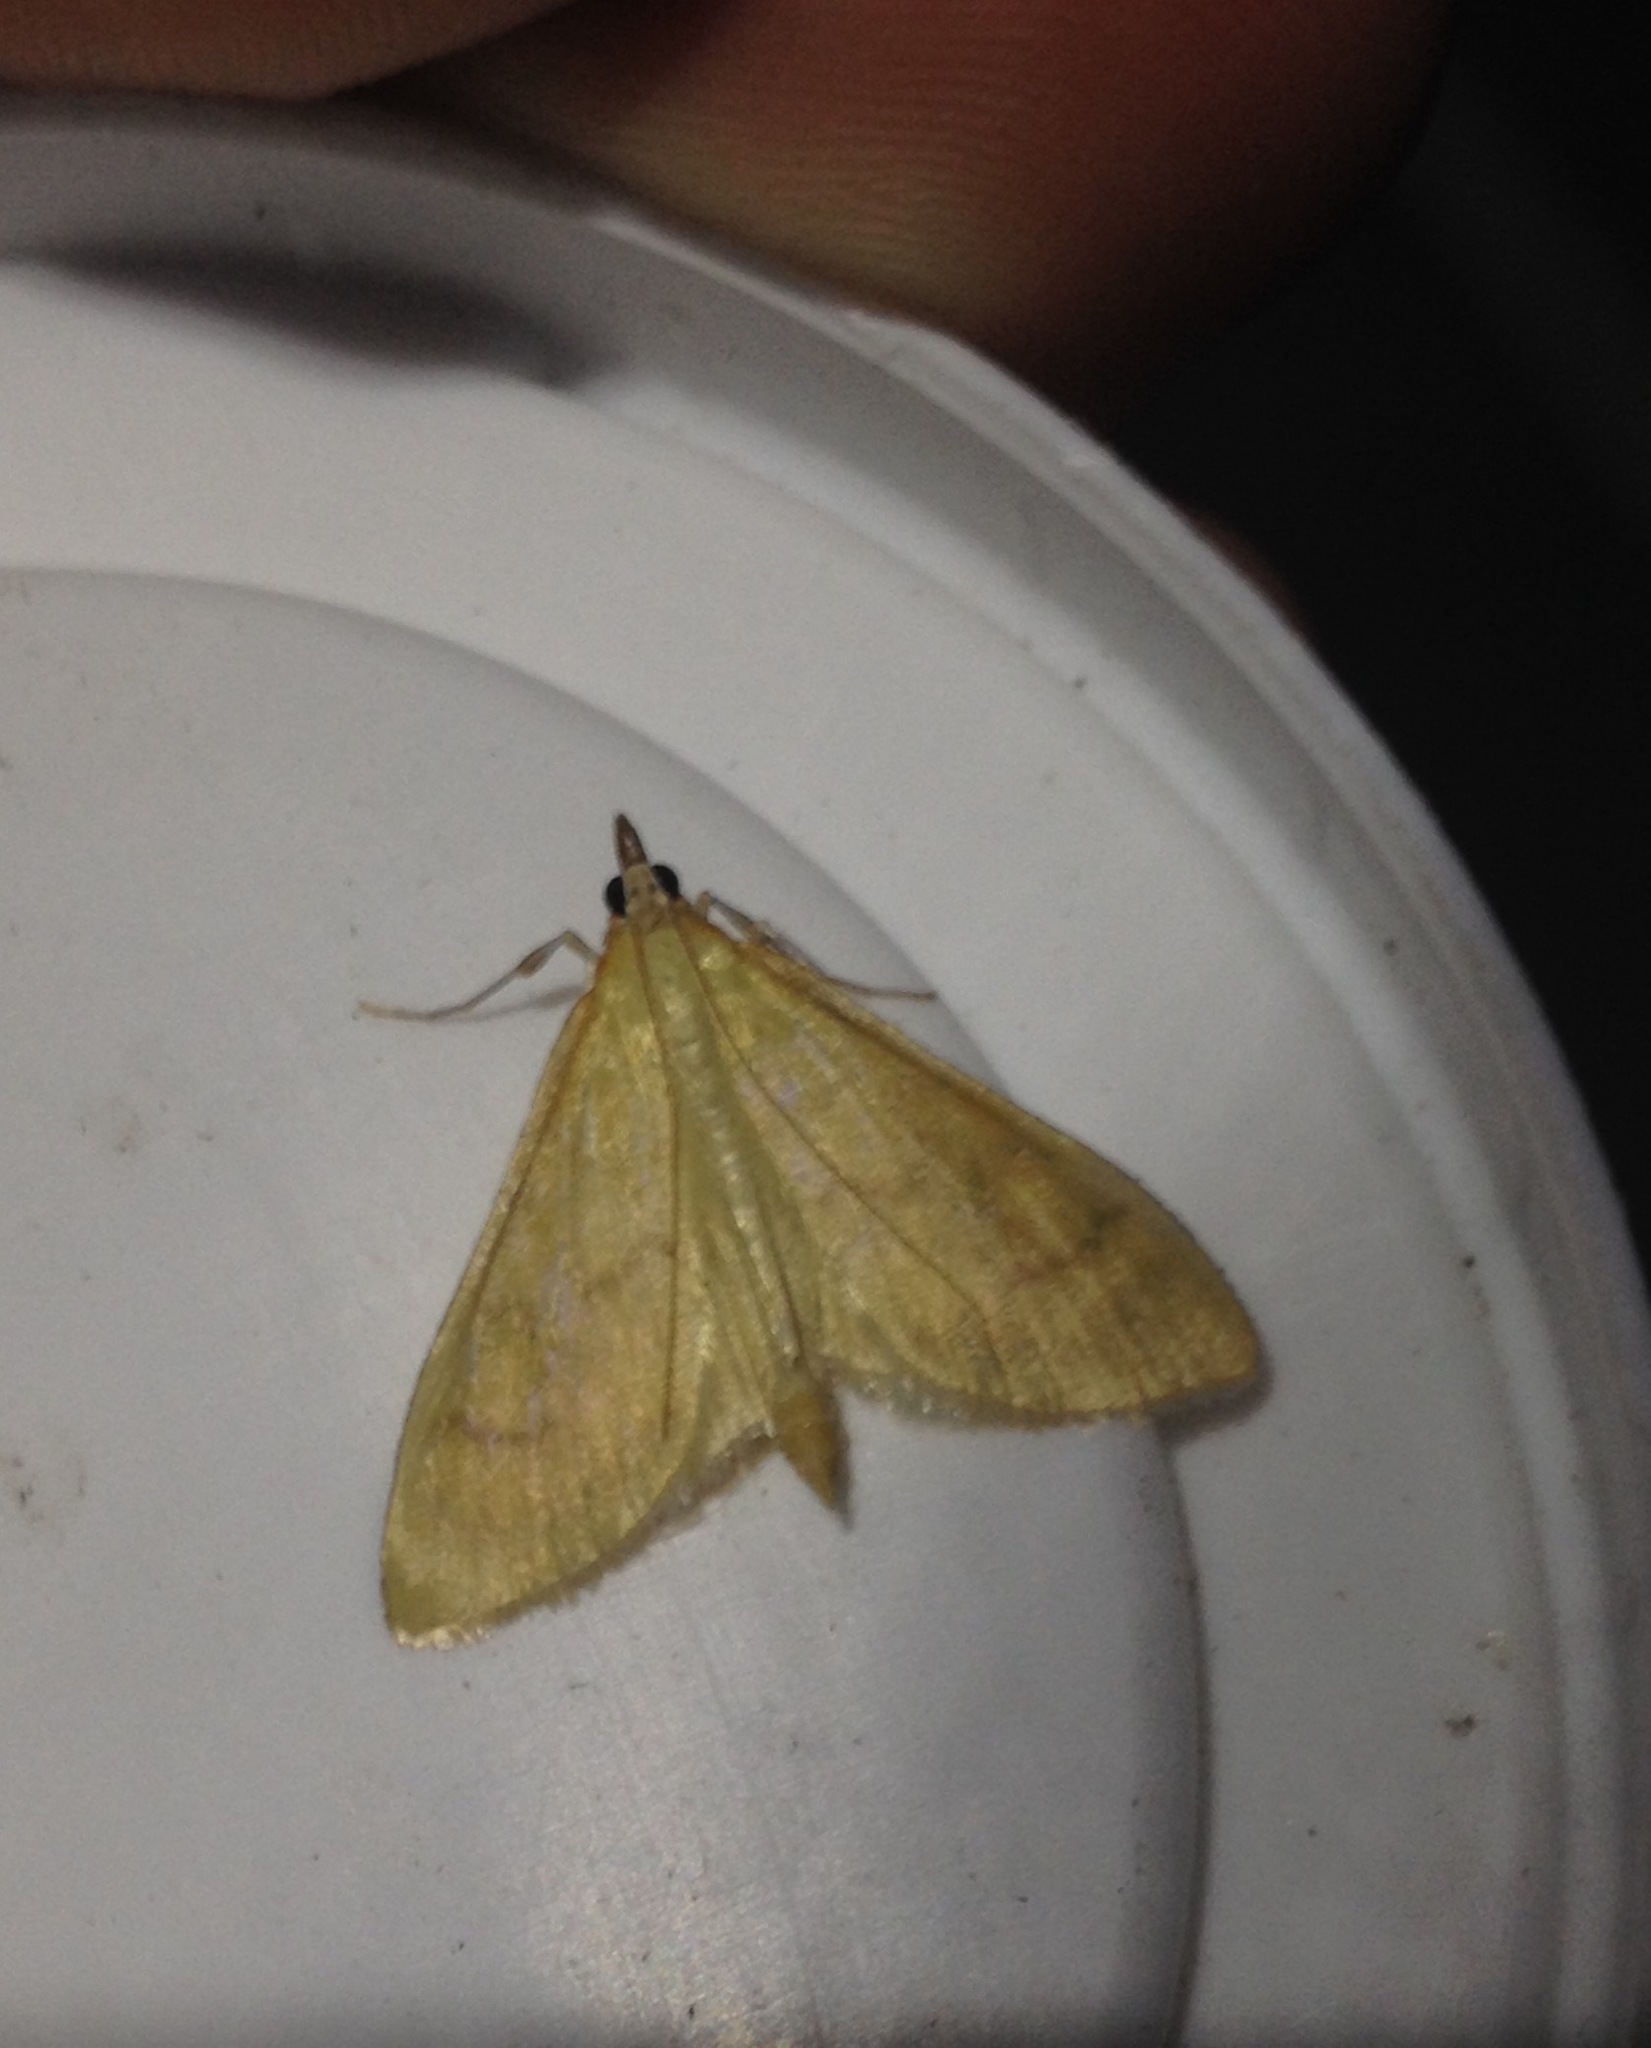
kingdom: Animalia
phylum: Arthropoda
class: Insecta
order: Lepidoptera
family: Crambidae
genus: Paratalanta
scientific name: Paratalanta pandalis
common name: Bordered pearl
